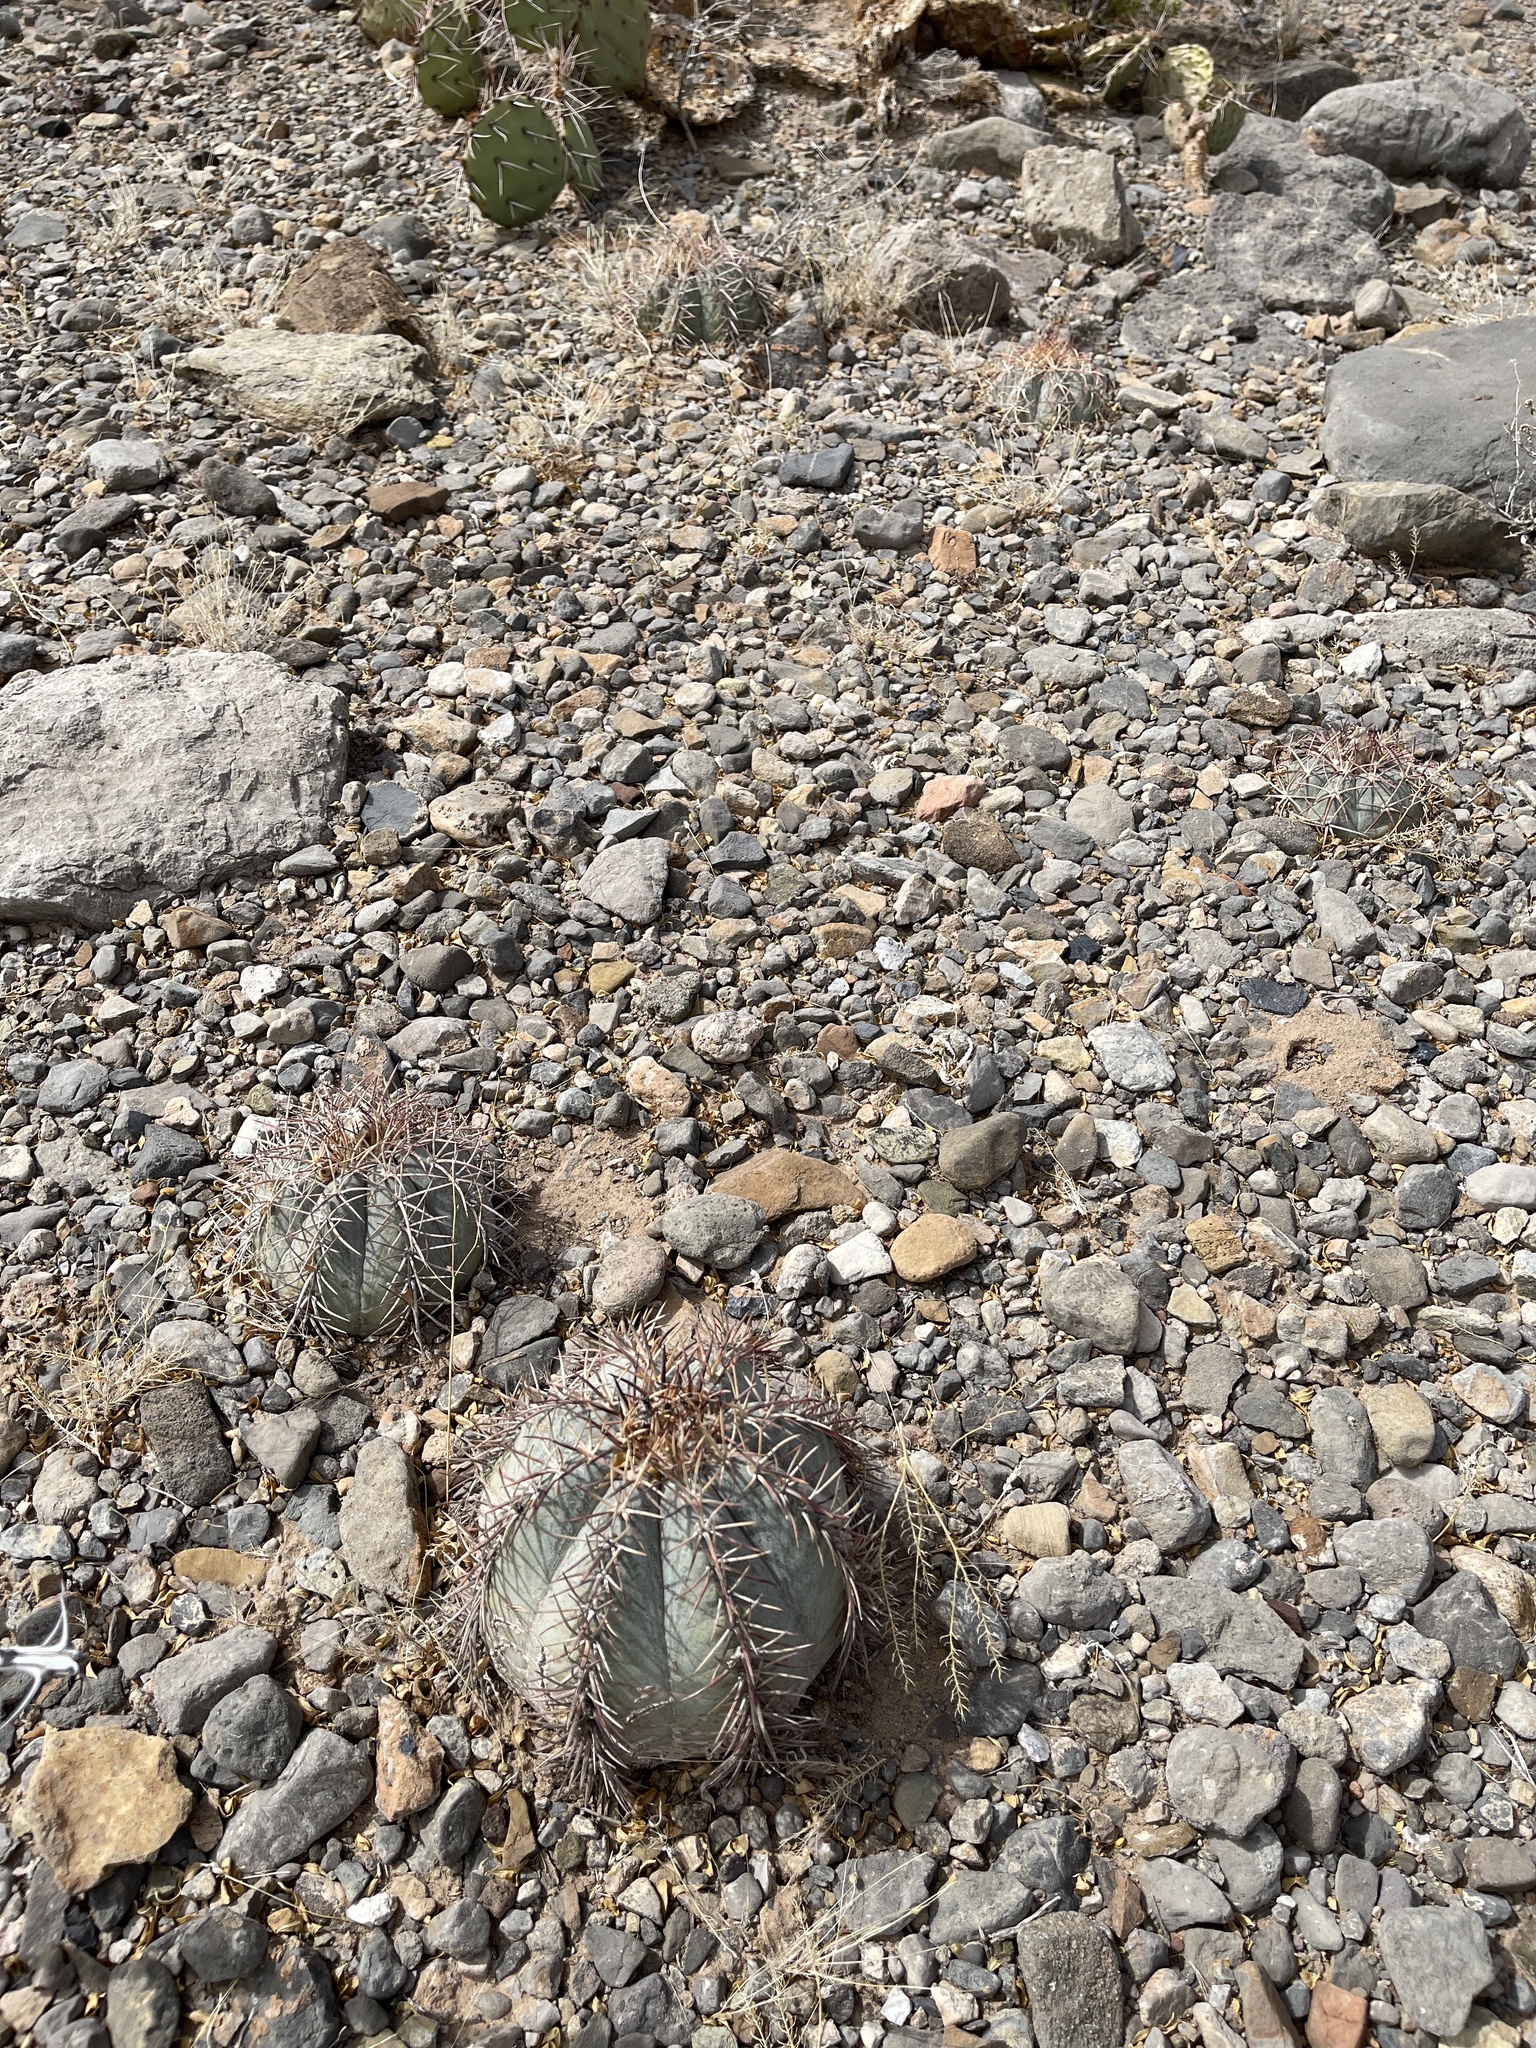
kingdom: Plantae
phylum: Tracheophyta
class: Magnoliopsida
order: Caryophyllales
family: Cactaceae
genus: Echinocactus
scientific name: Echinocactus horizonthalonius
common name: Devilshead
